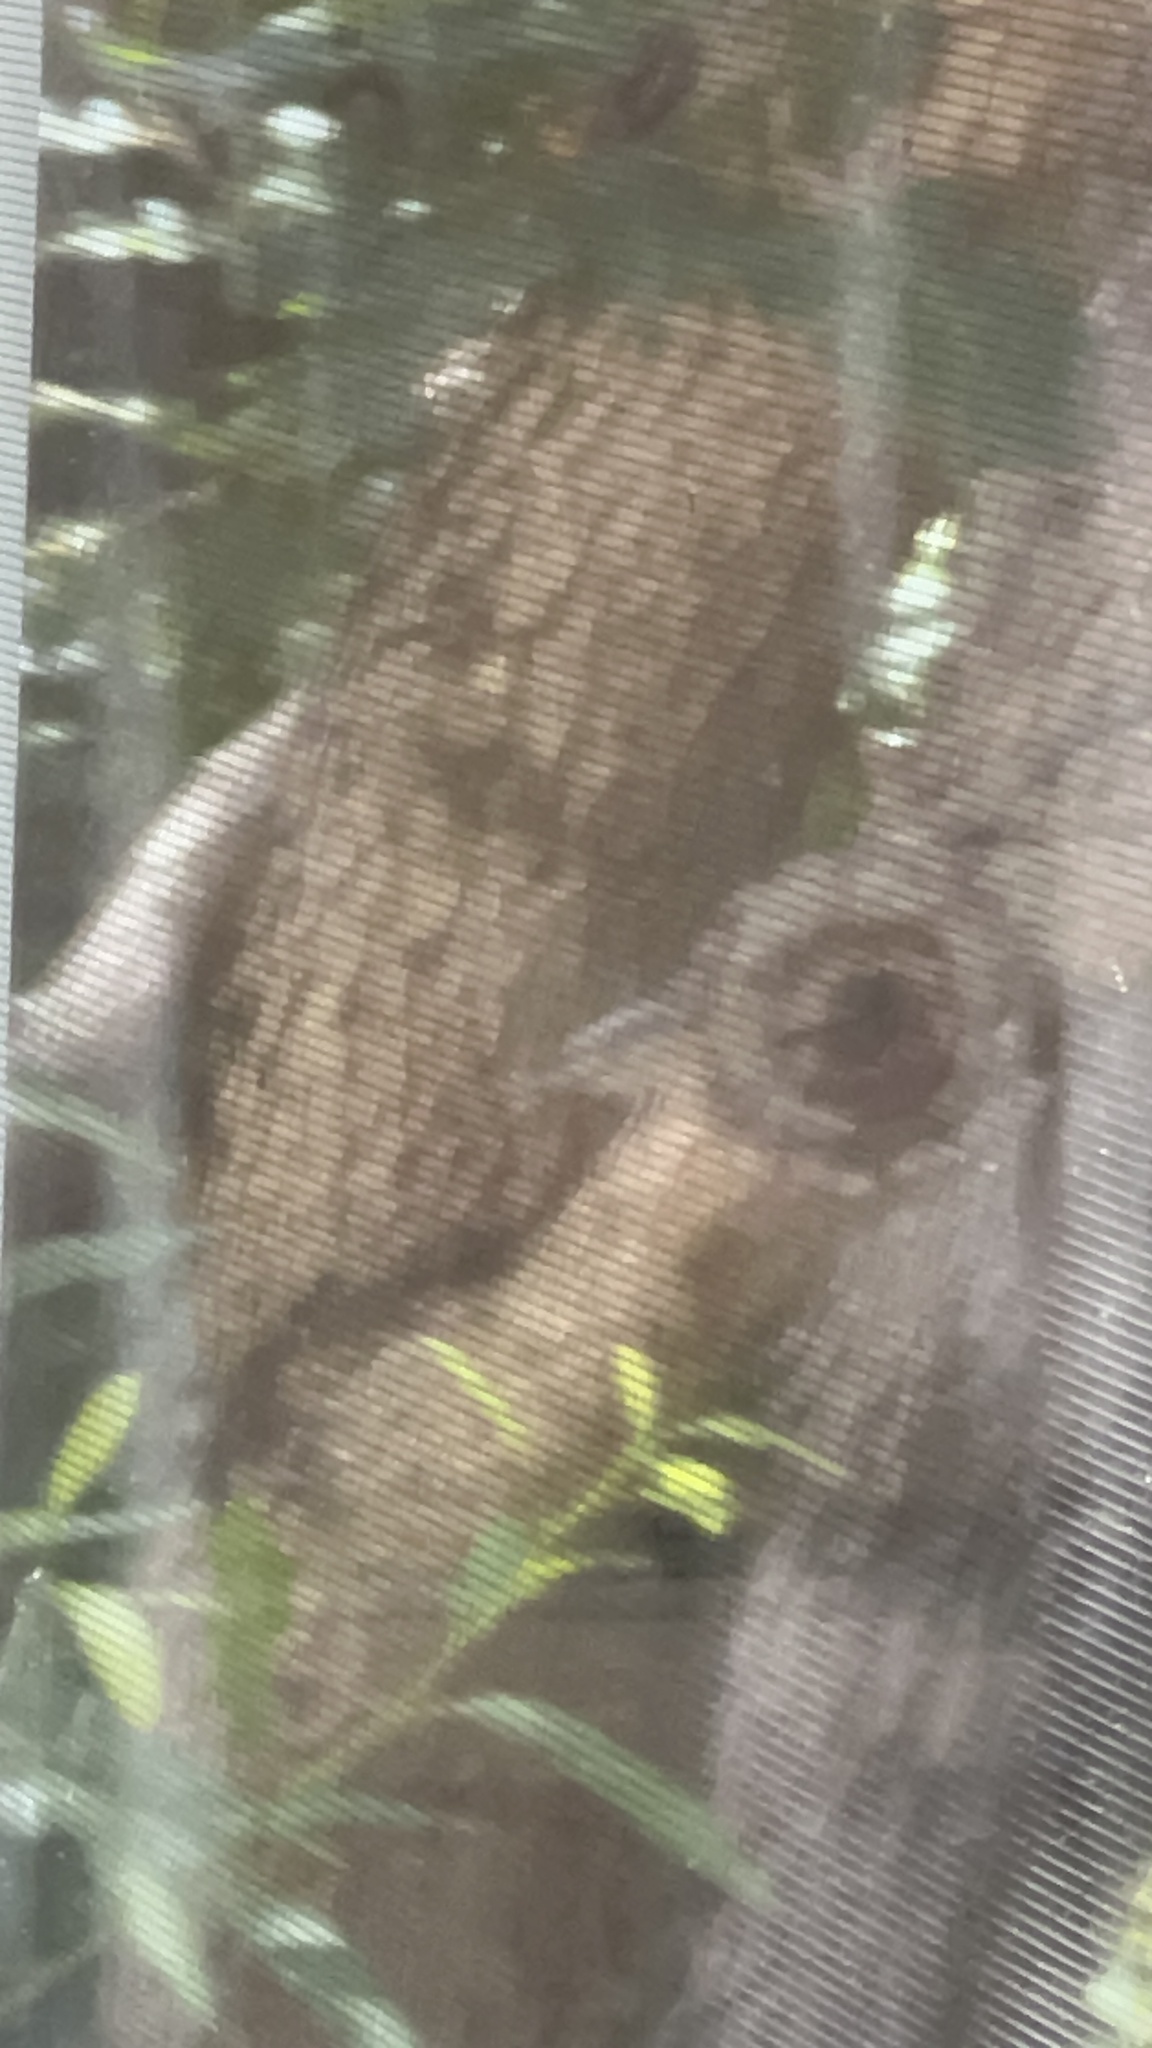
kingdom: Animalia
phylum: Chordata
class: Aves
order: Passeriformes
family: Sittidae
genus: Sitta
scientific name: Sitta carolinensis
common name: White-breasted nuthatch
